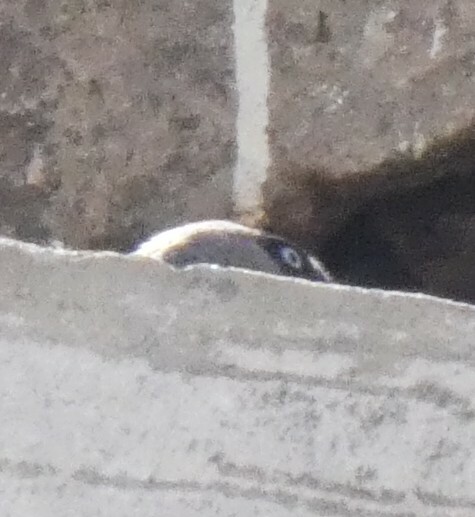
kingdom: Animalia
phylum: Chordata
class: Aves
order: Passeriformes
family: Corvidae
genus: Coloeus
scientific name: Coloeus monedula
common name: Western jackdaw
